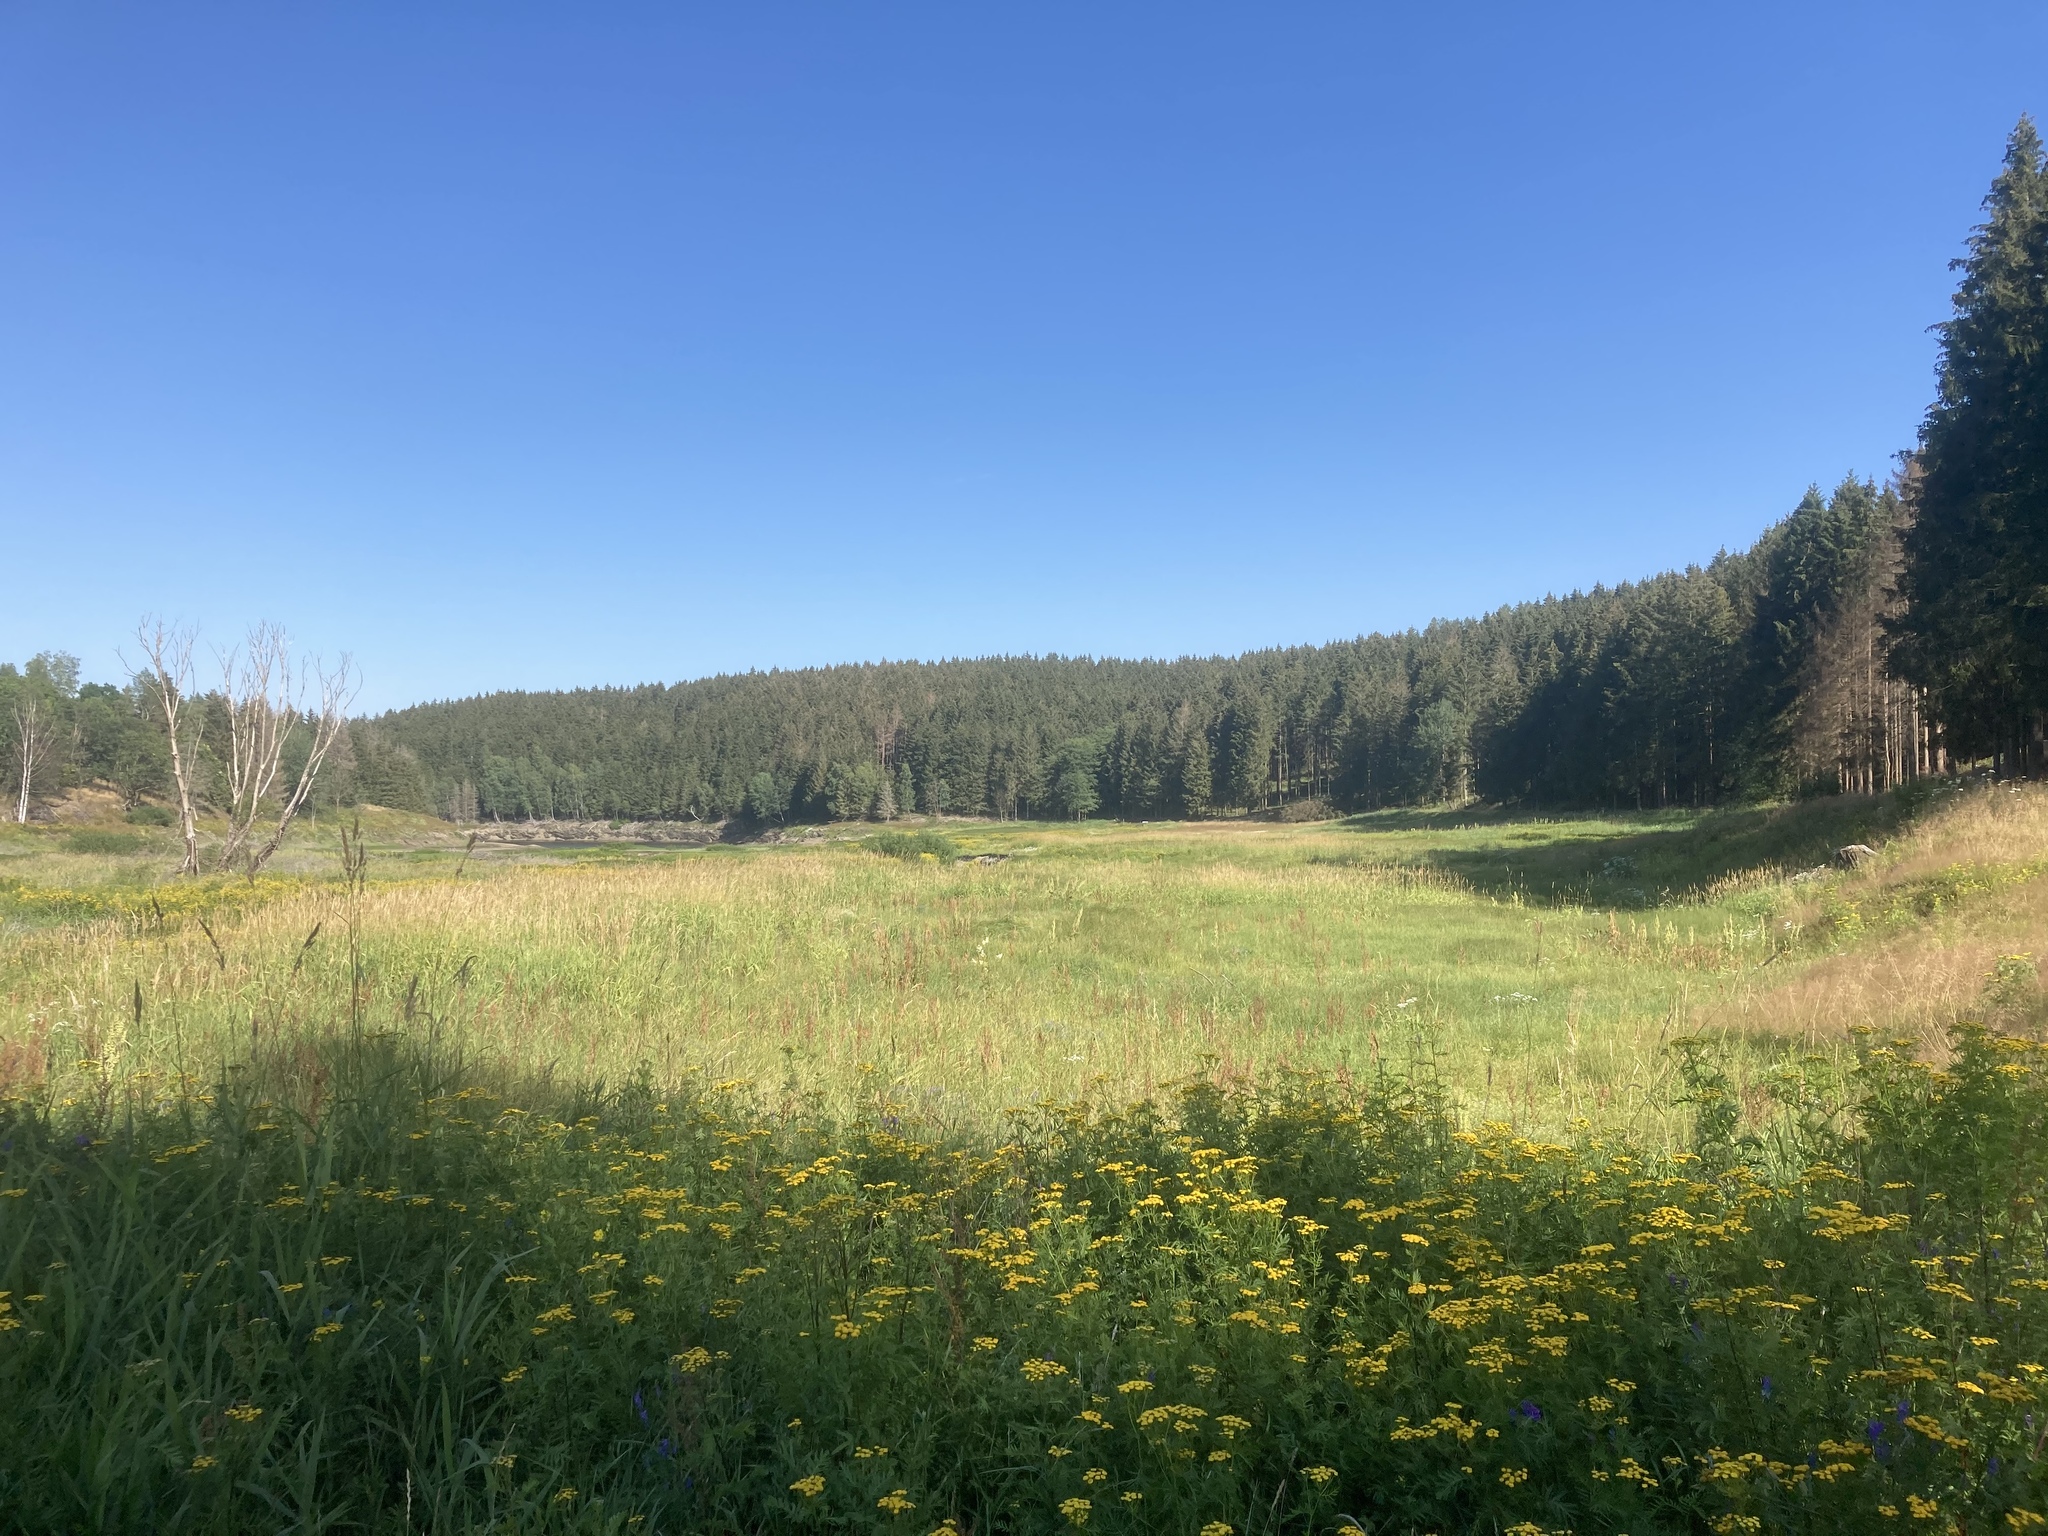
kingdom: Plantae
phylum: Tracheophyta
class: Magnoliopsida
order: Asterales
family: Asteraceae
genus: Tanacetum
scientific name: Tanacetum vulgare
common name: Common tansy
